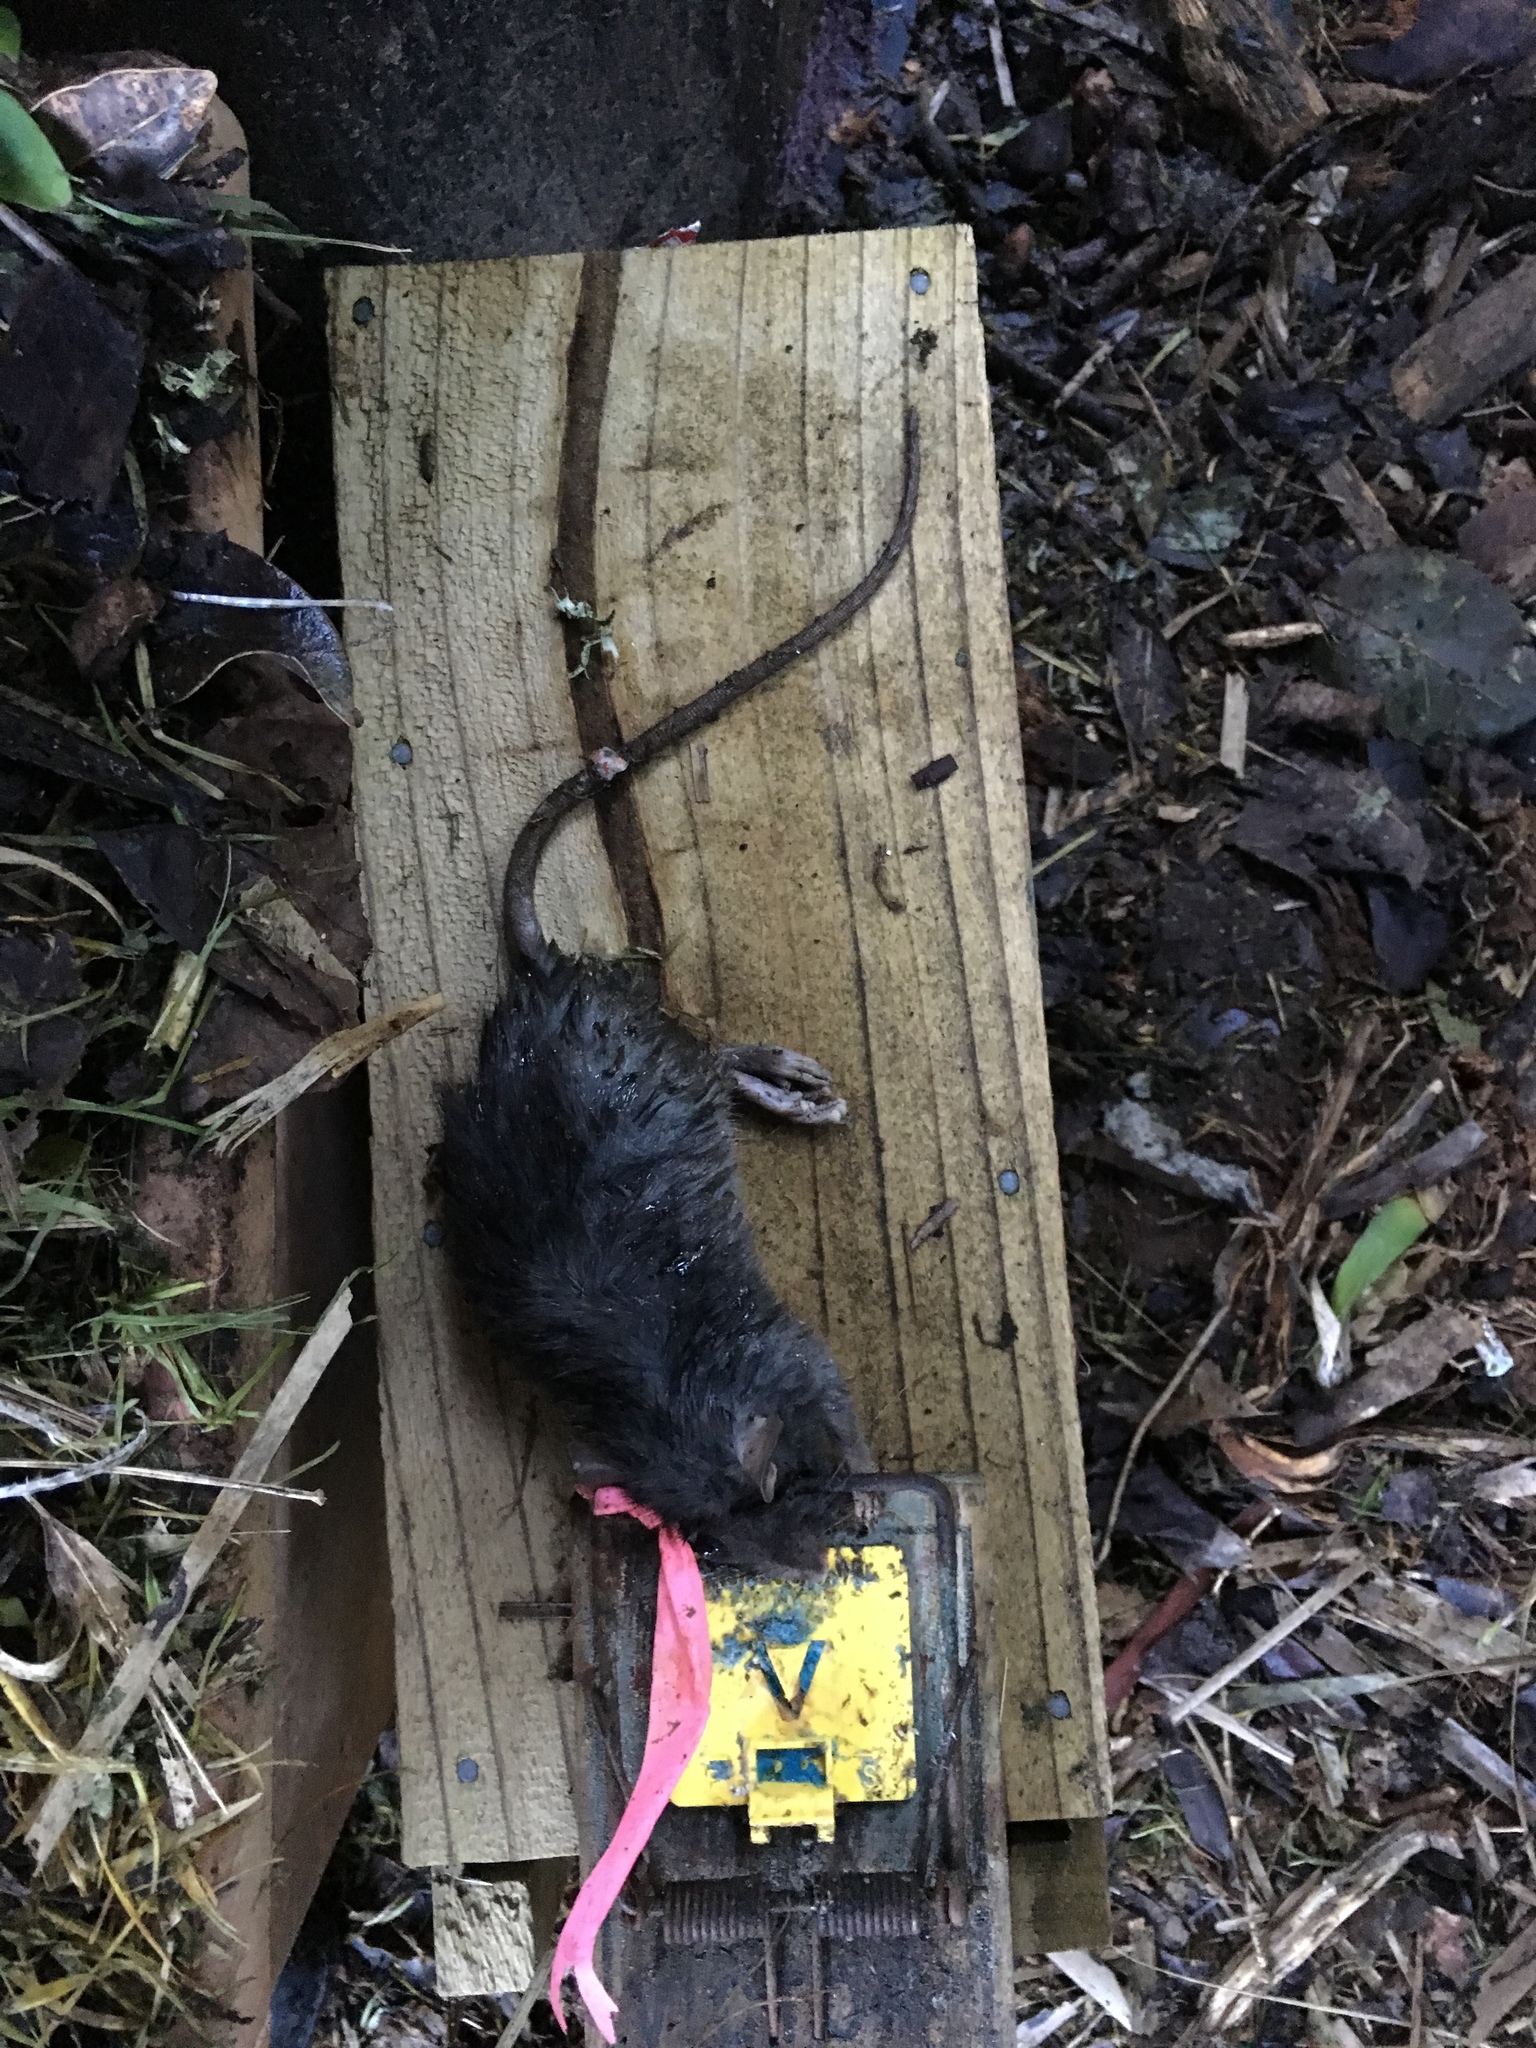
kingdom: Animalia
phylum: Chordata
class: Mammalia
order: Rodentia
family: Muridae
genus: Rattus
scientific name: Rattus rattus
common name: Black rat
